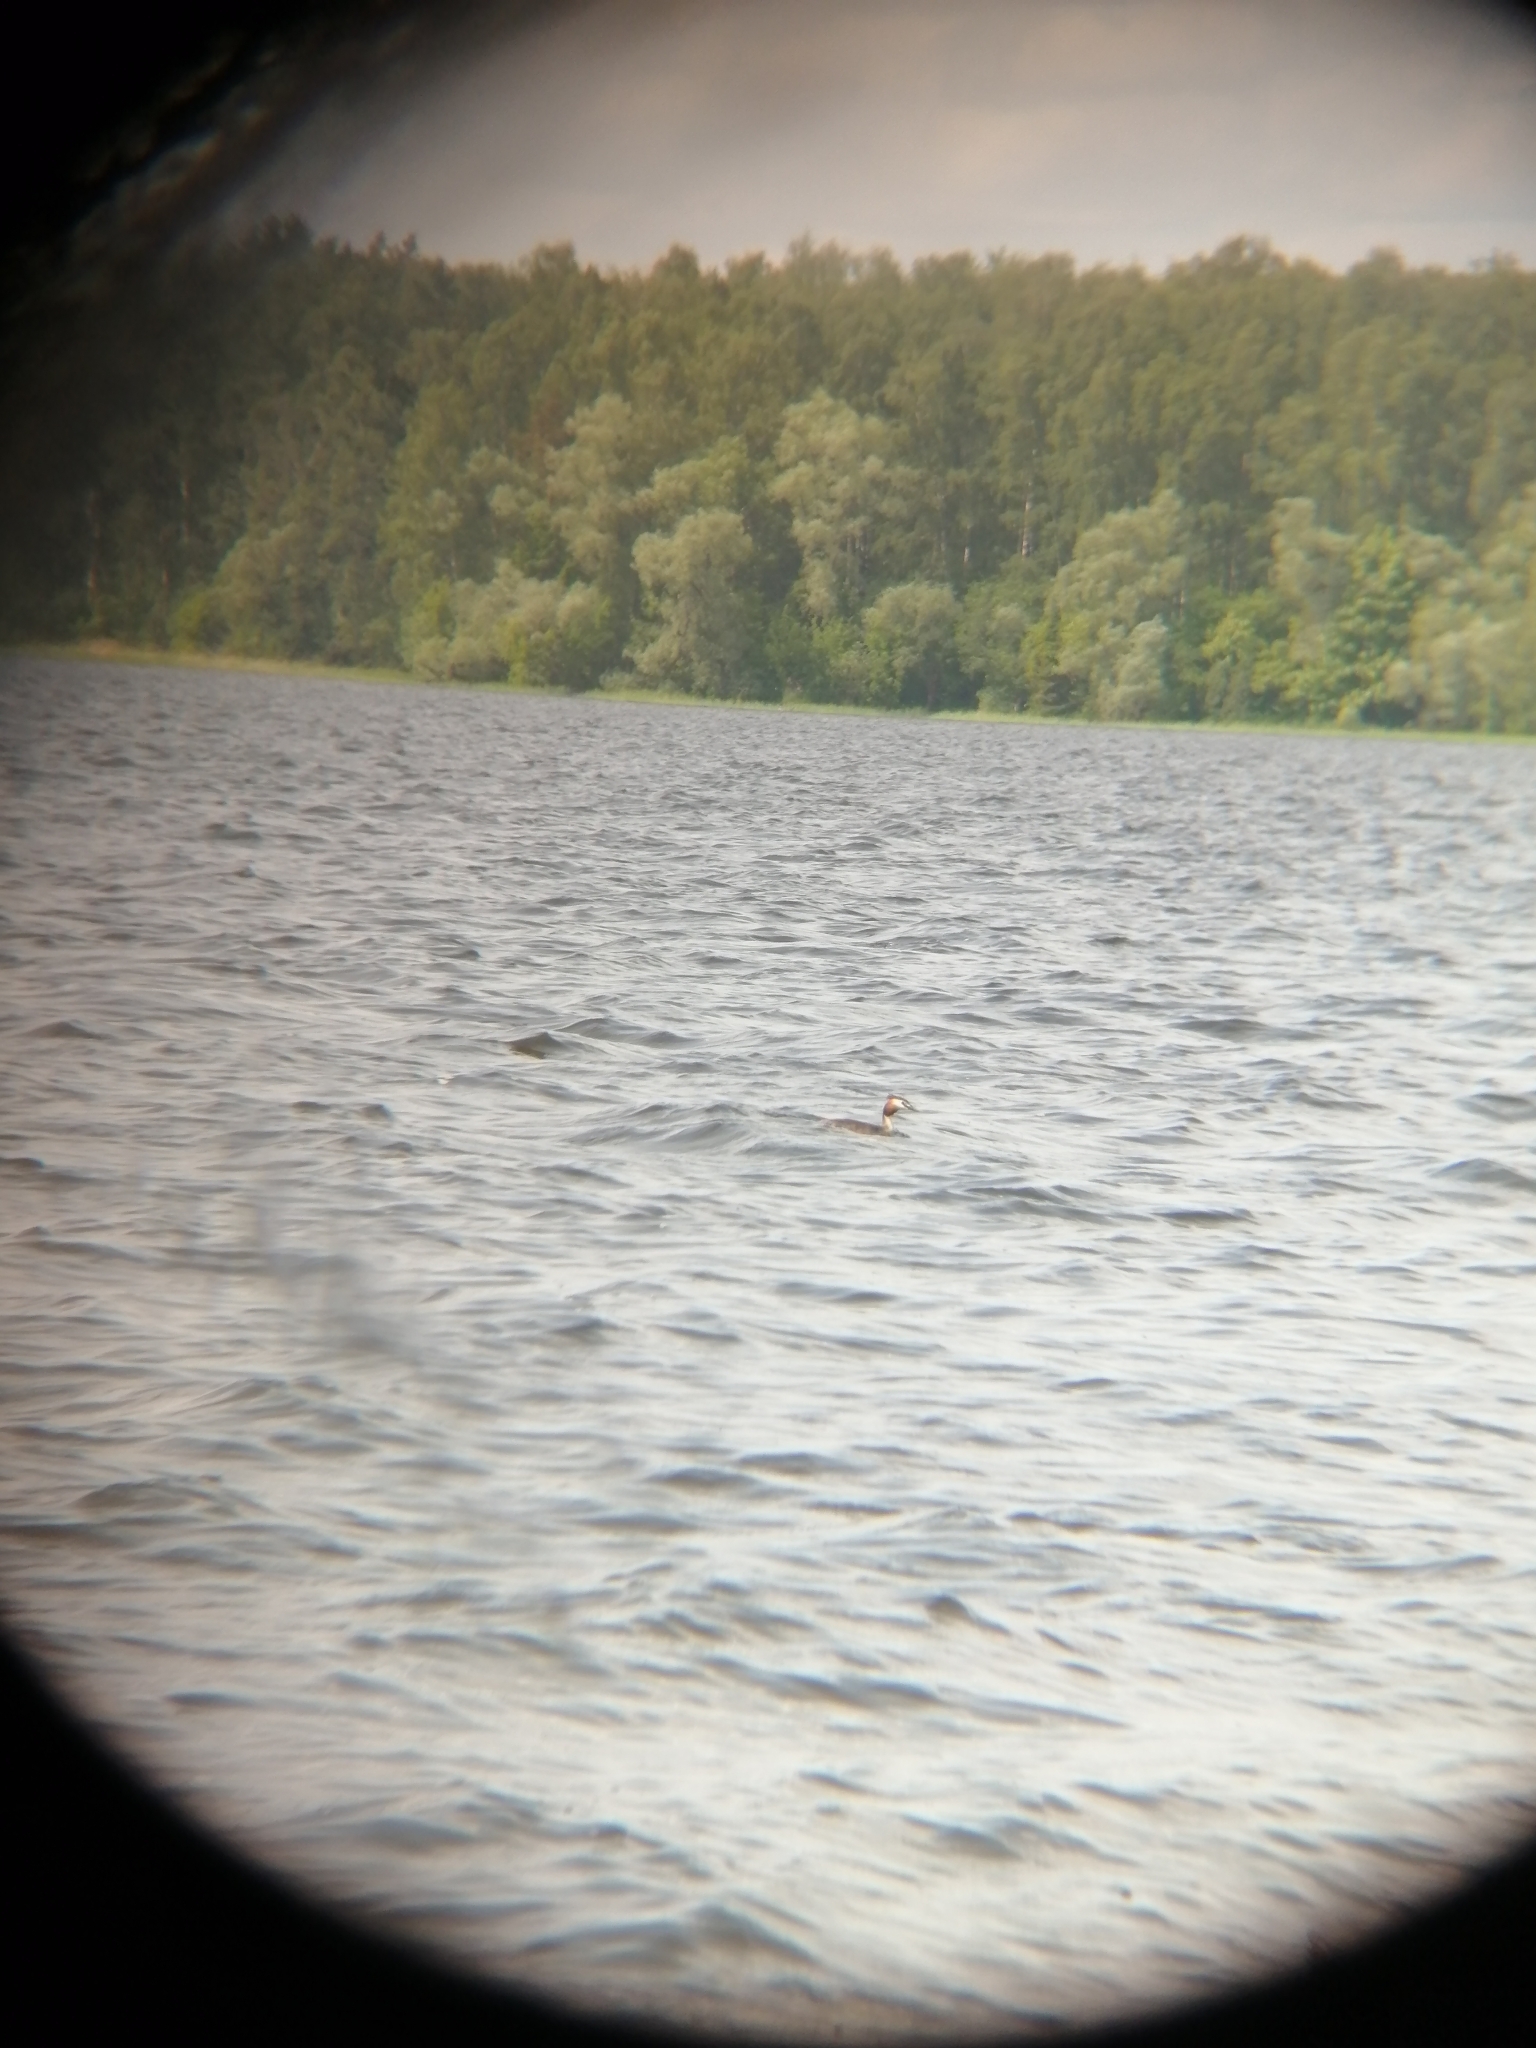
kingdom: Animalia
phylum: Chordata
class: Aves
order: Podicipediformes
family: Podicipedidae
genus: Podiceps
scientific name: Podiceps cristatus
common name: Great crested grebe
